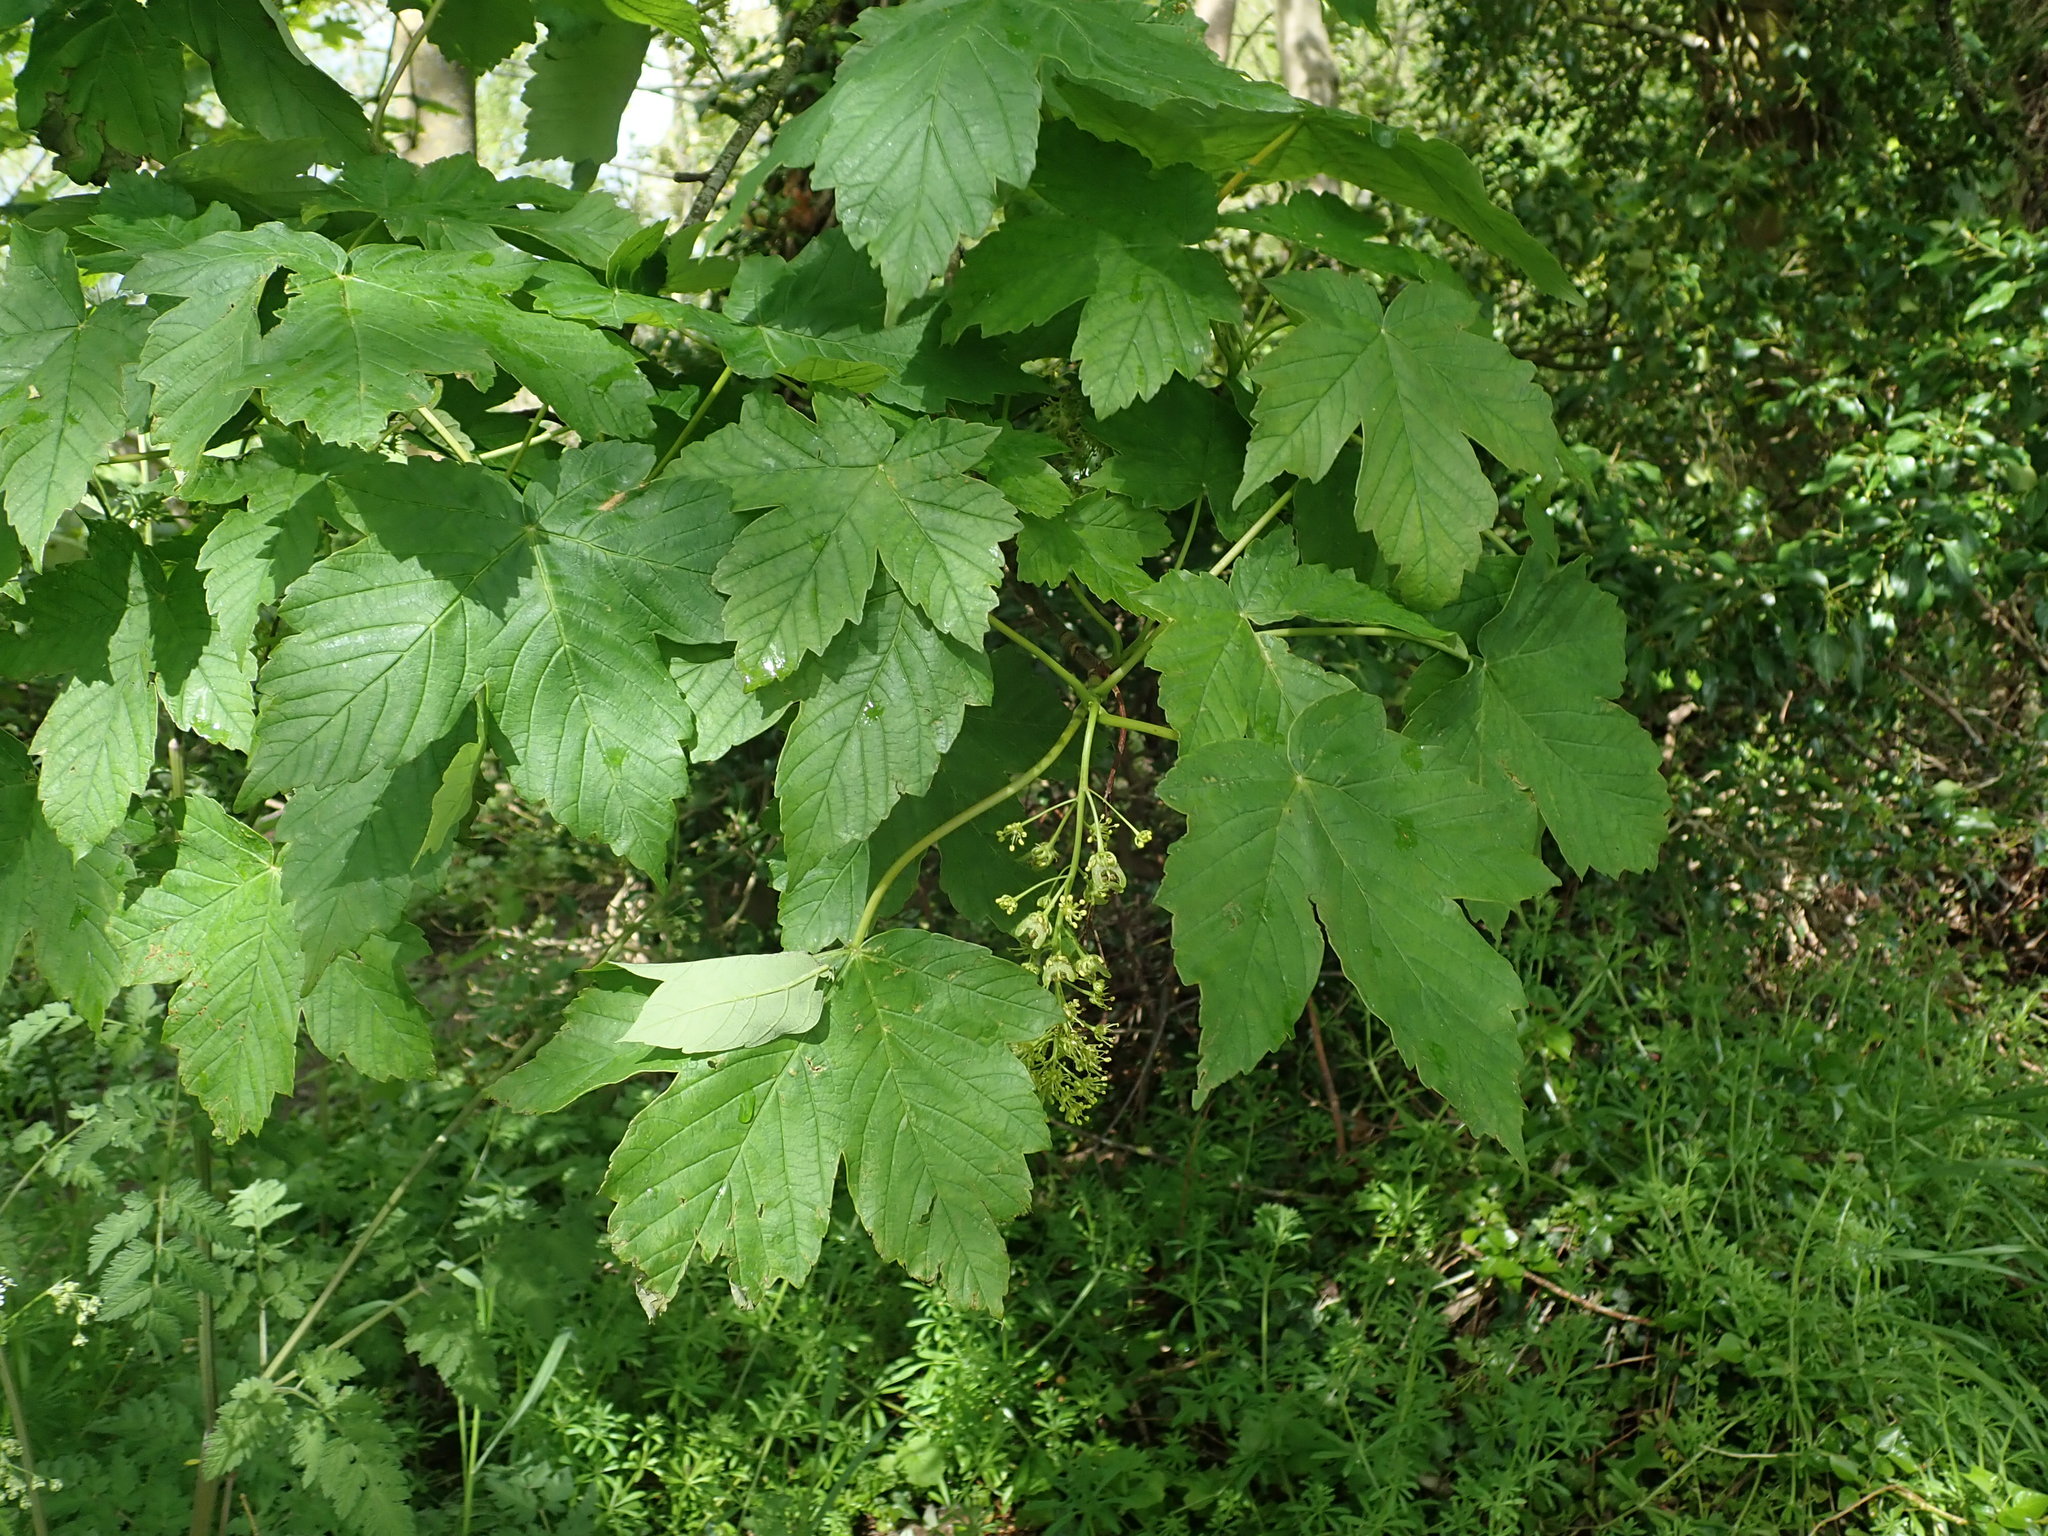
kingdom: Plantae
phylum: Tracheophyta
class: Magnoliopsida
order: Sapindales
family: Sapindaceae
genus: Acer
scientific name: Acer pseudoplatanus
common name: Sycamore
